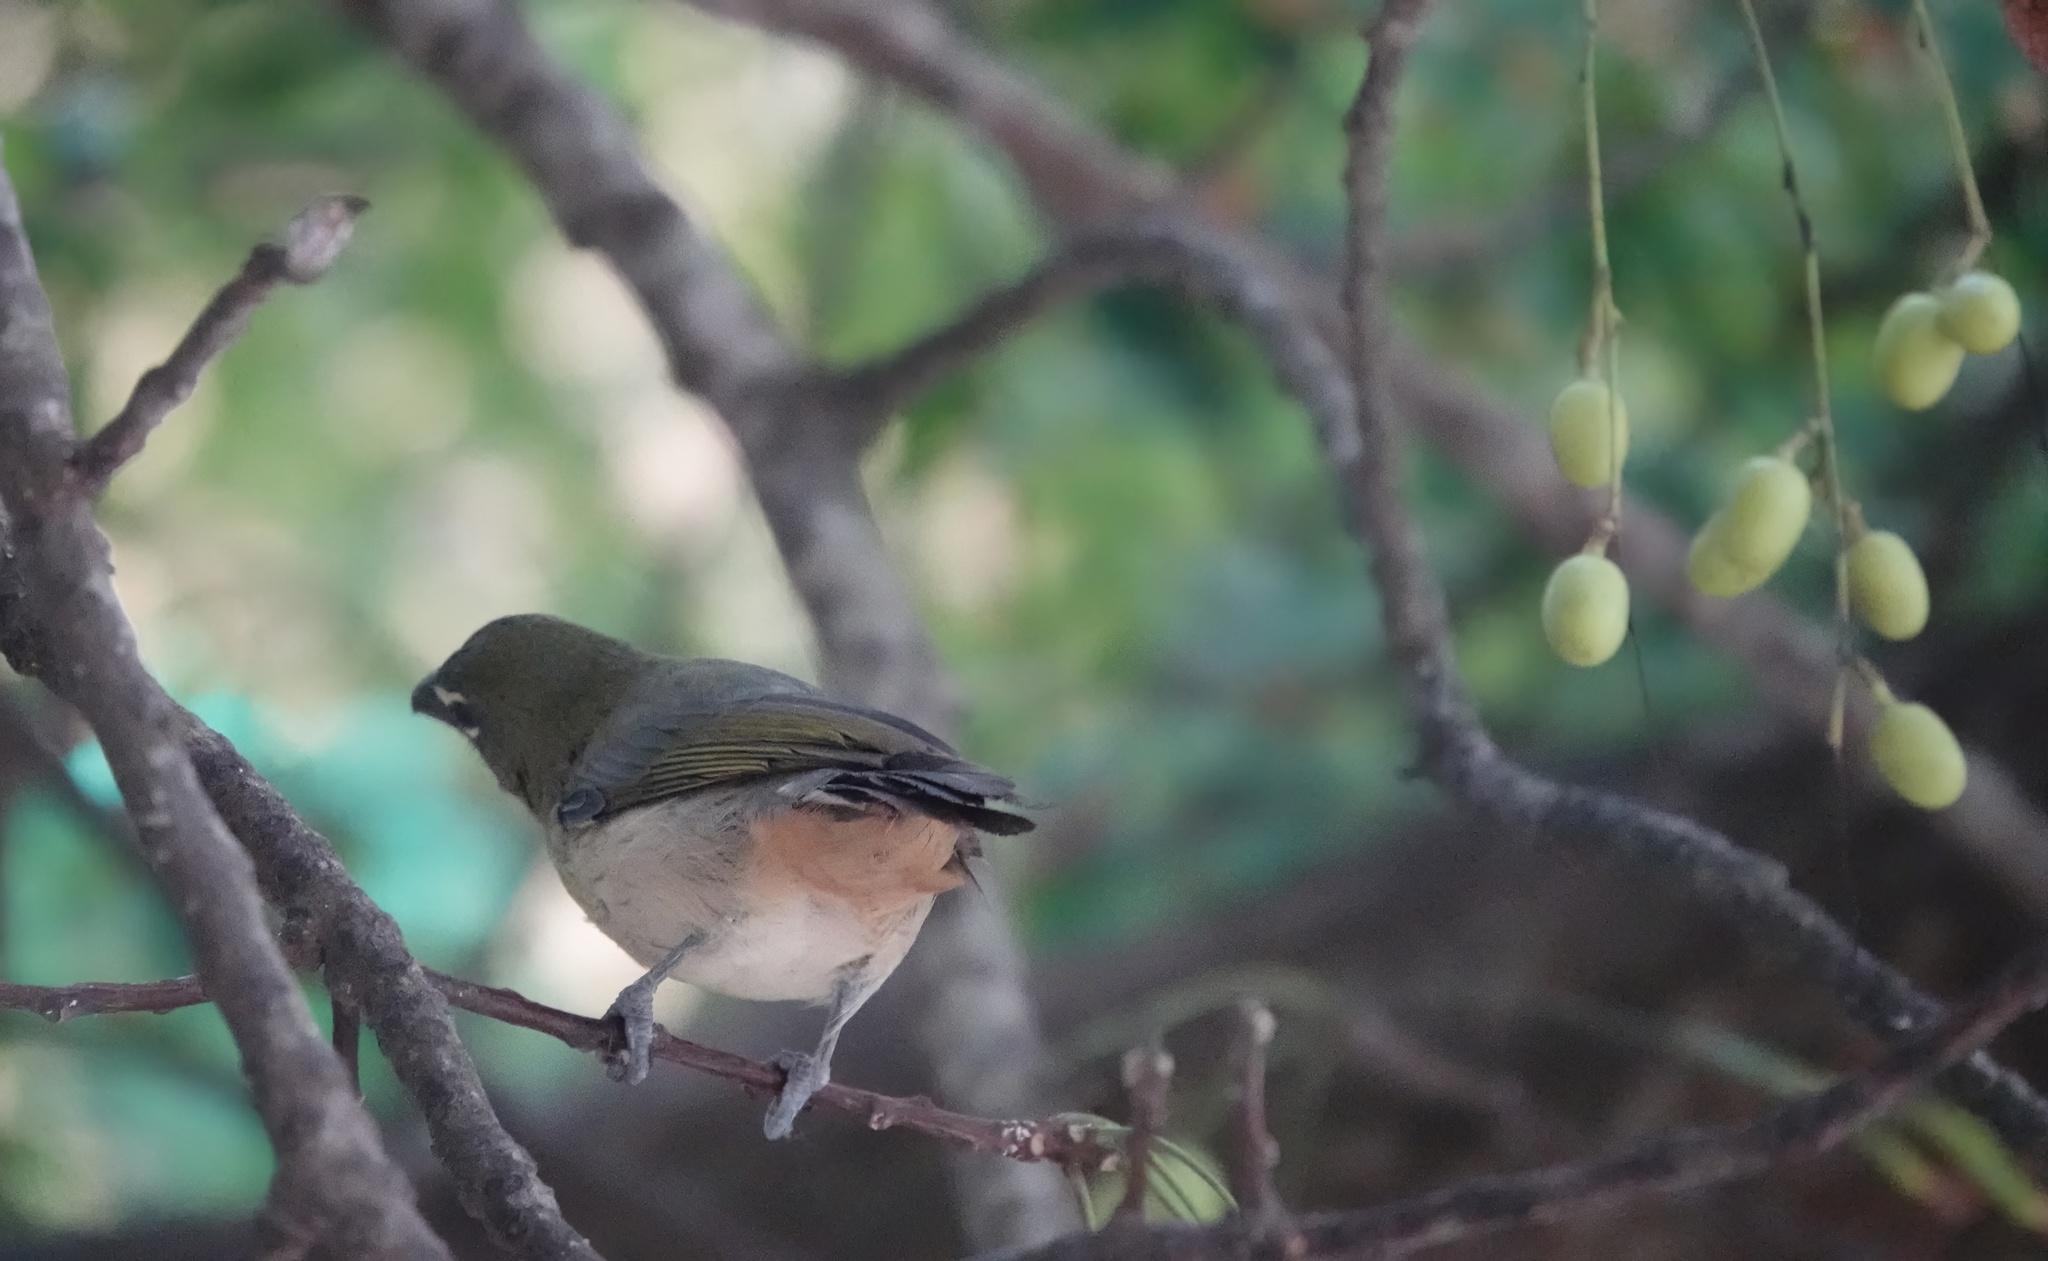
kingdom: Animalia
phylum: Chordata
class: Aves
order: Passeriformes
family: Thraupidae
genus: Saltator
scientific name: Saltator olivascens
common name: Caribbean grey saltator
